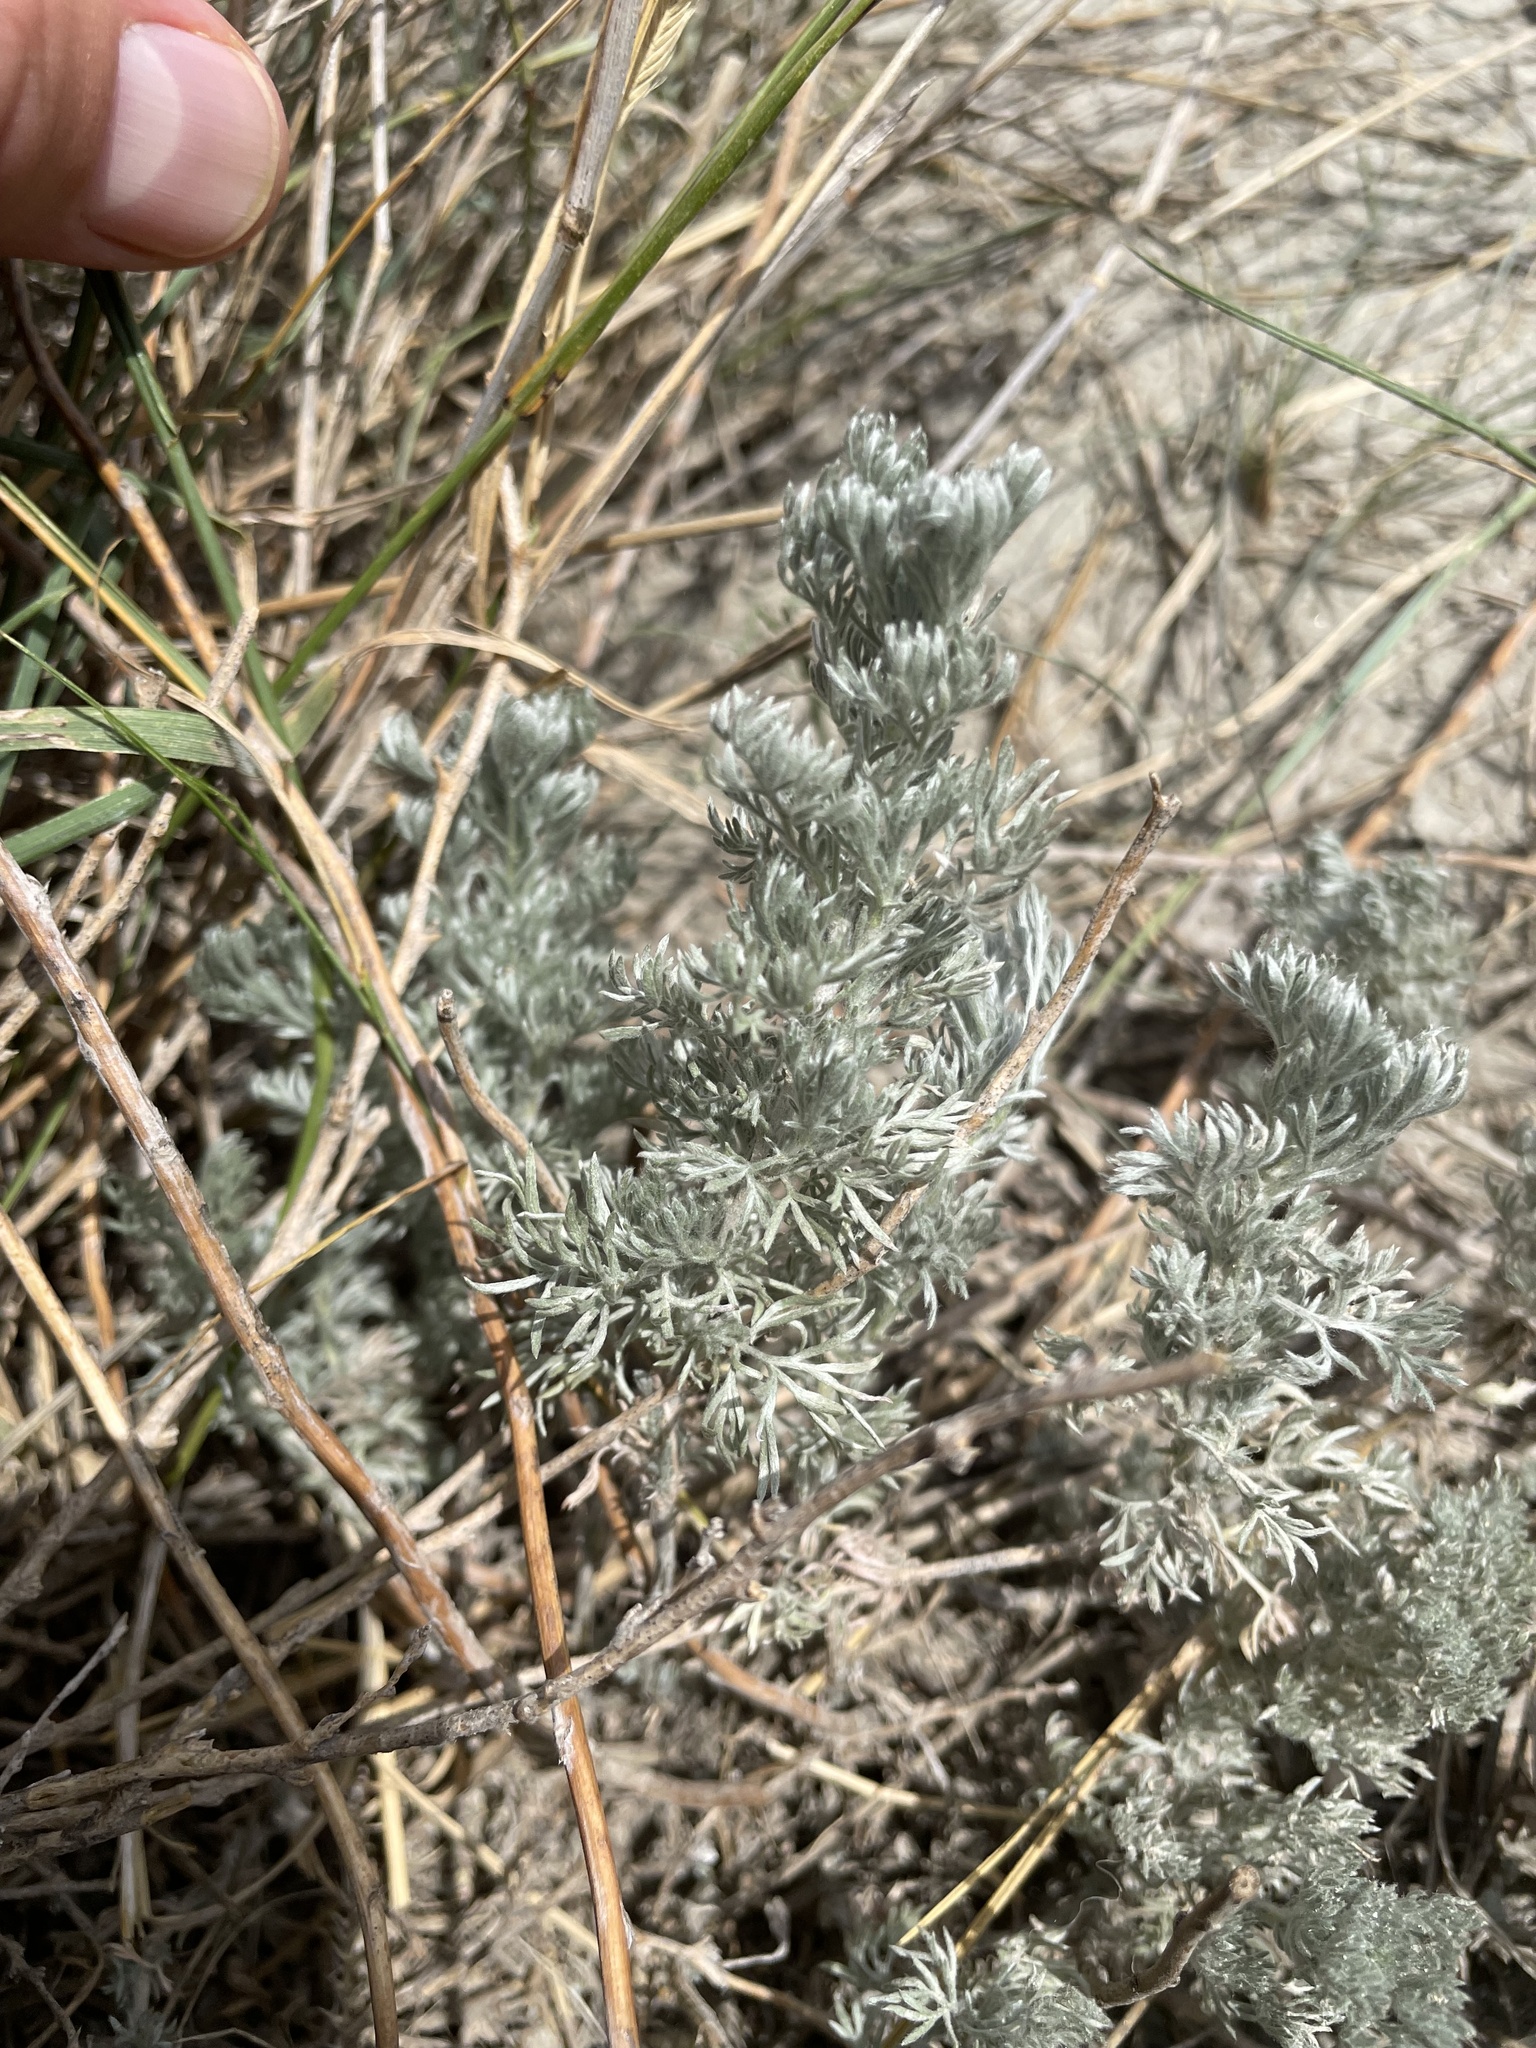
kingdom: Plantae
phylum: Tracheophyta
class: Magnoliopsida
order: Asterales
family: Asteraceae
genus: Artemisia
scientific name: Artemisia frigida
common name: Prairie sagewort
